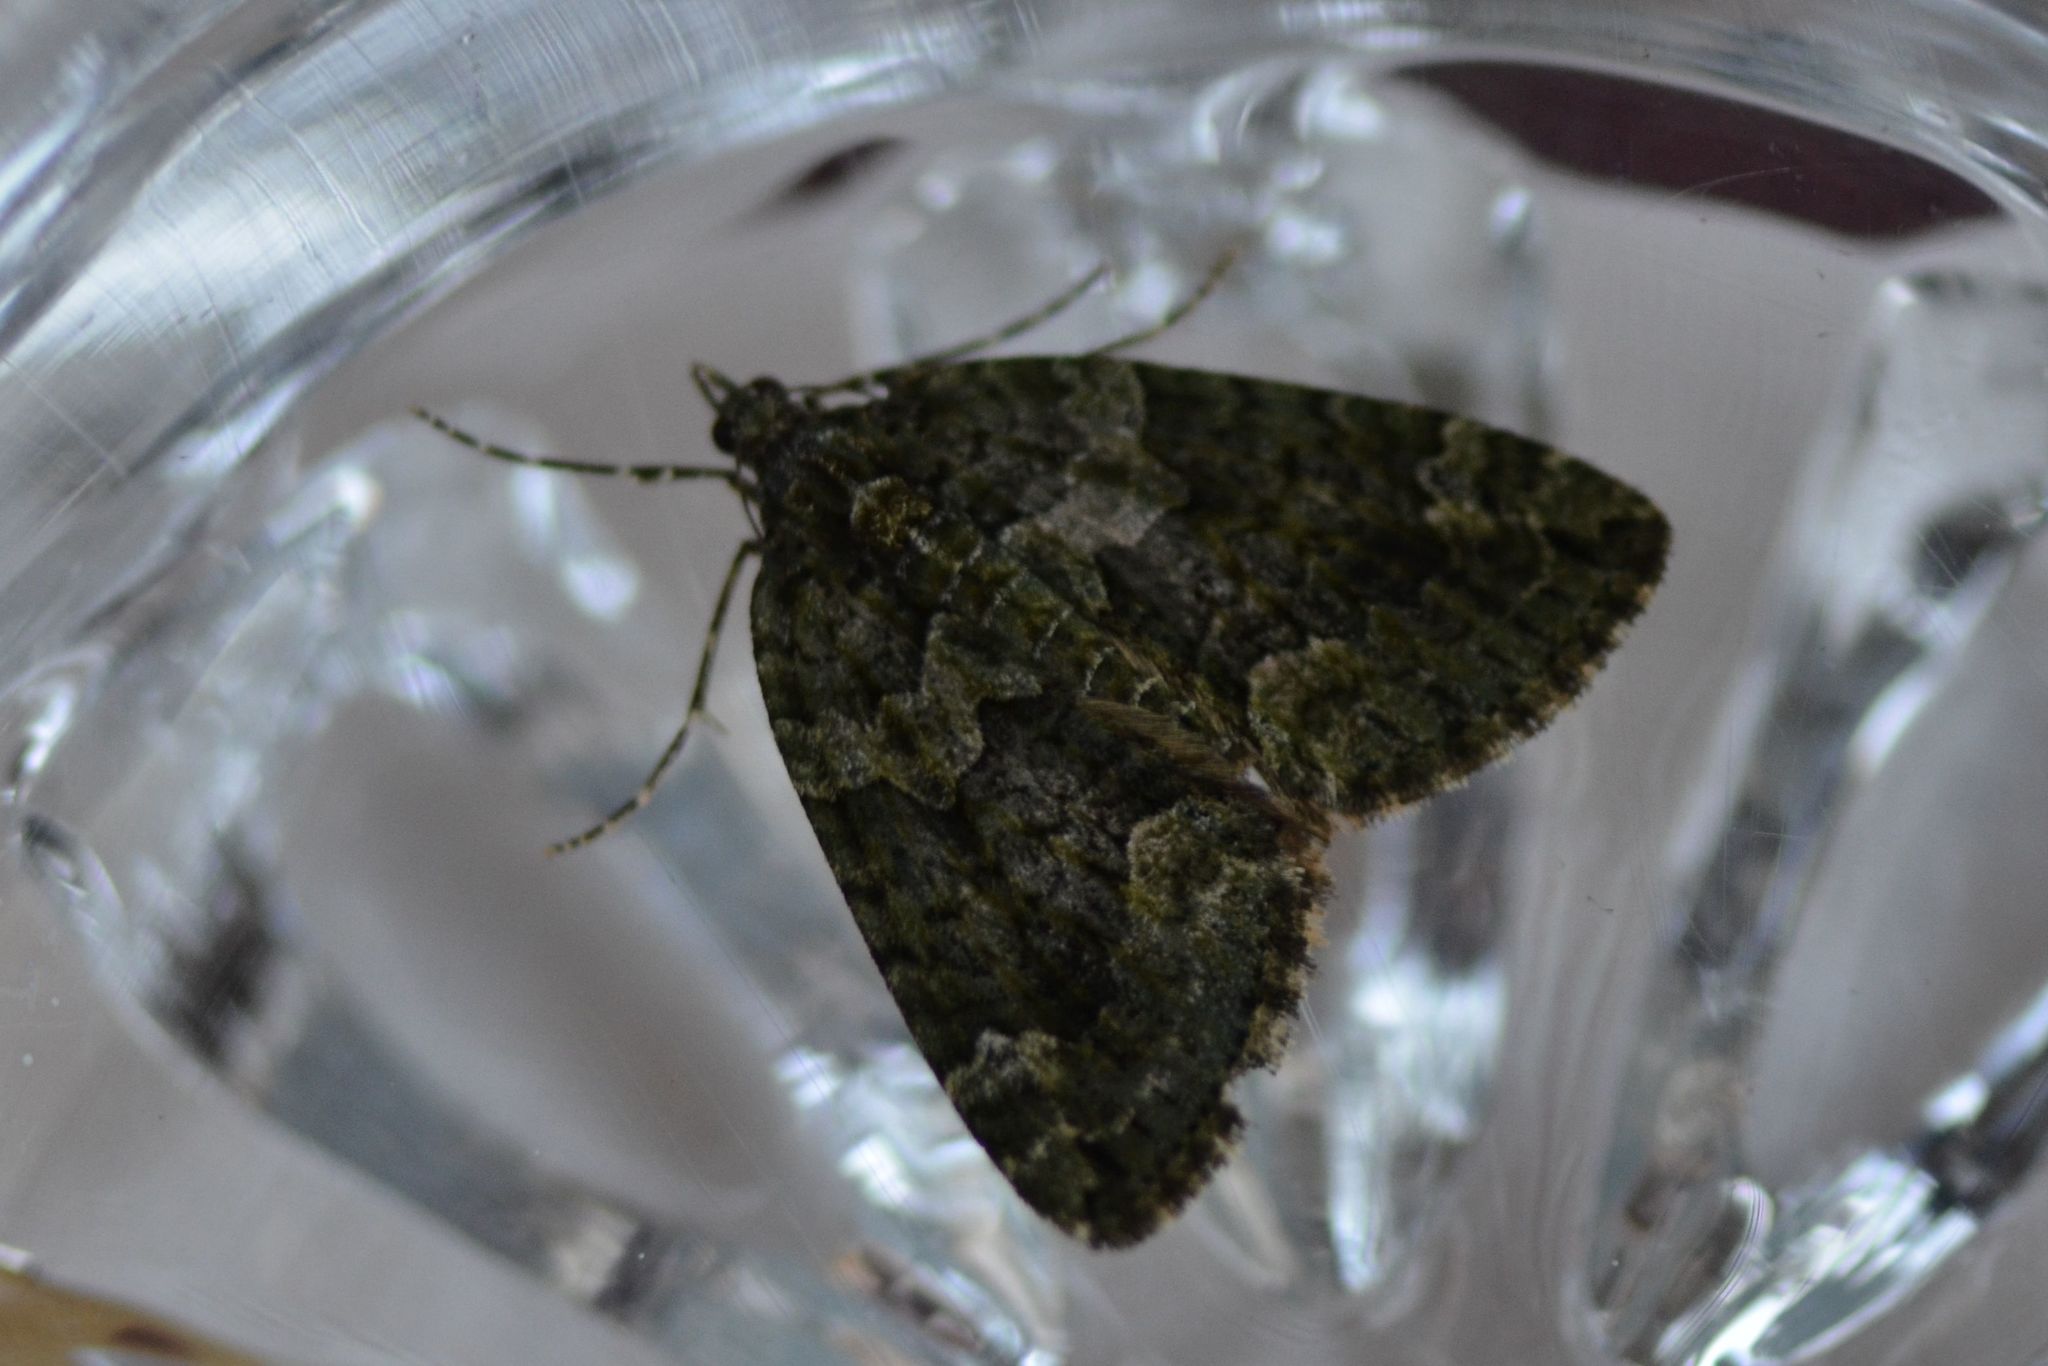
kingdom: Animalia
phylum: Arthropoda
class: Insecta
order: Lepidoptera
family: Geometridae
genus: Chloroclysta
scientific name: Chloroclysta siterata
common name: Red-green carpet
